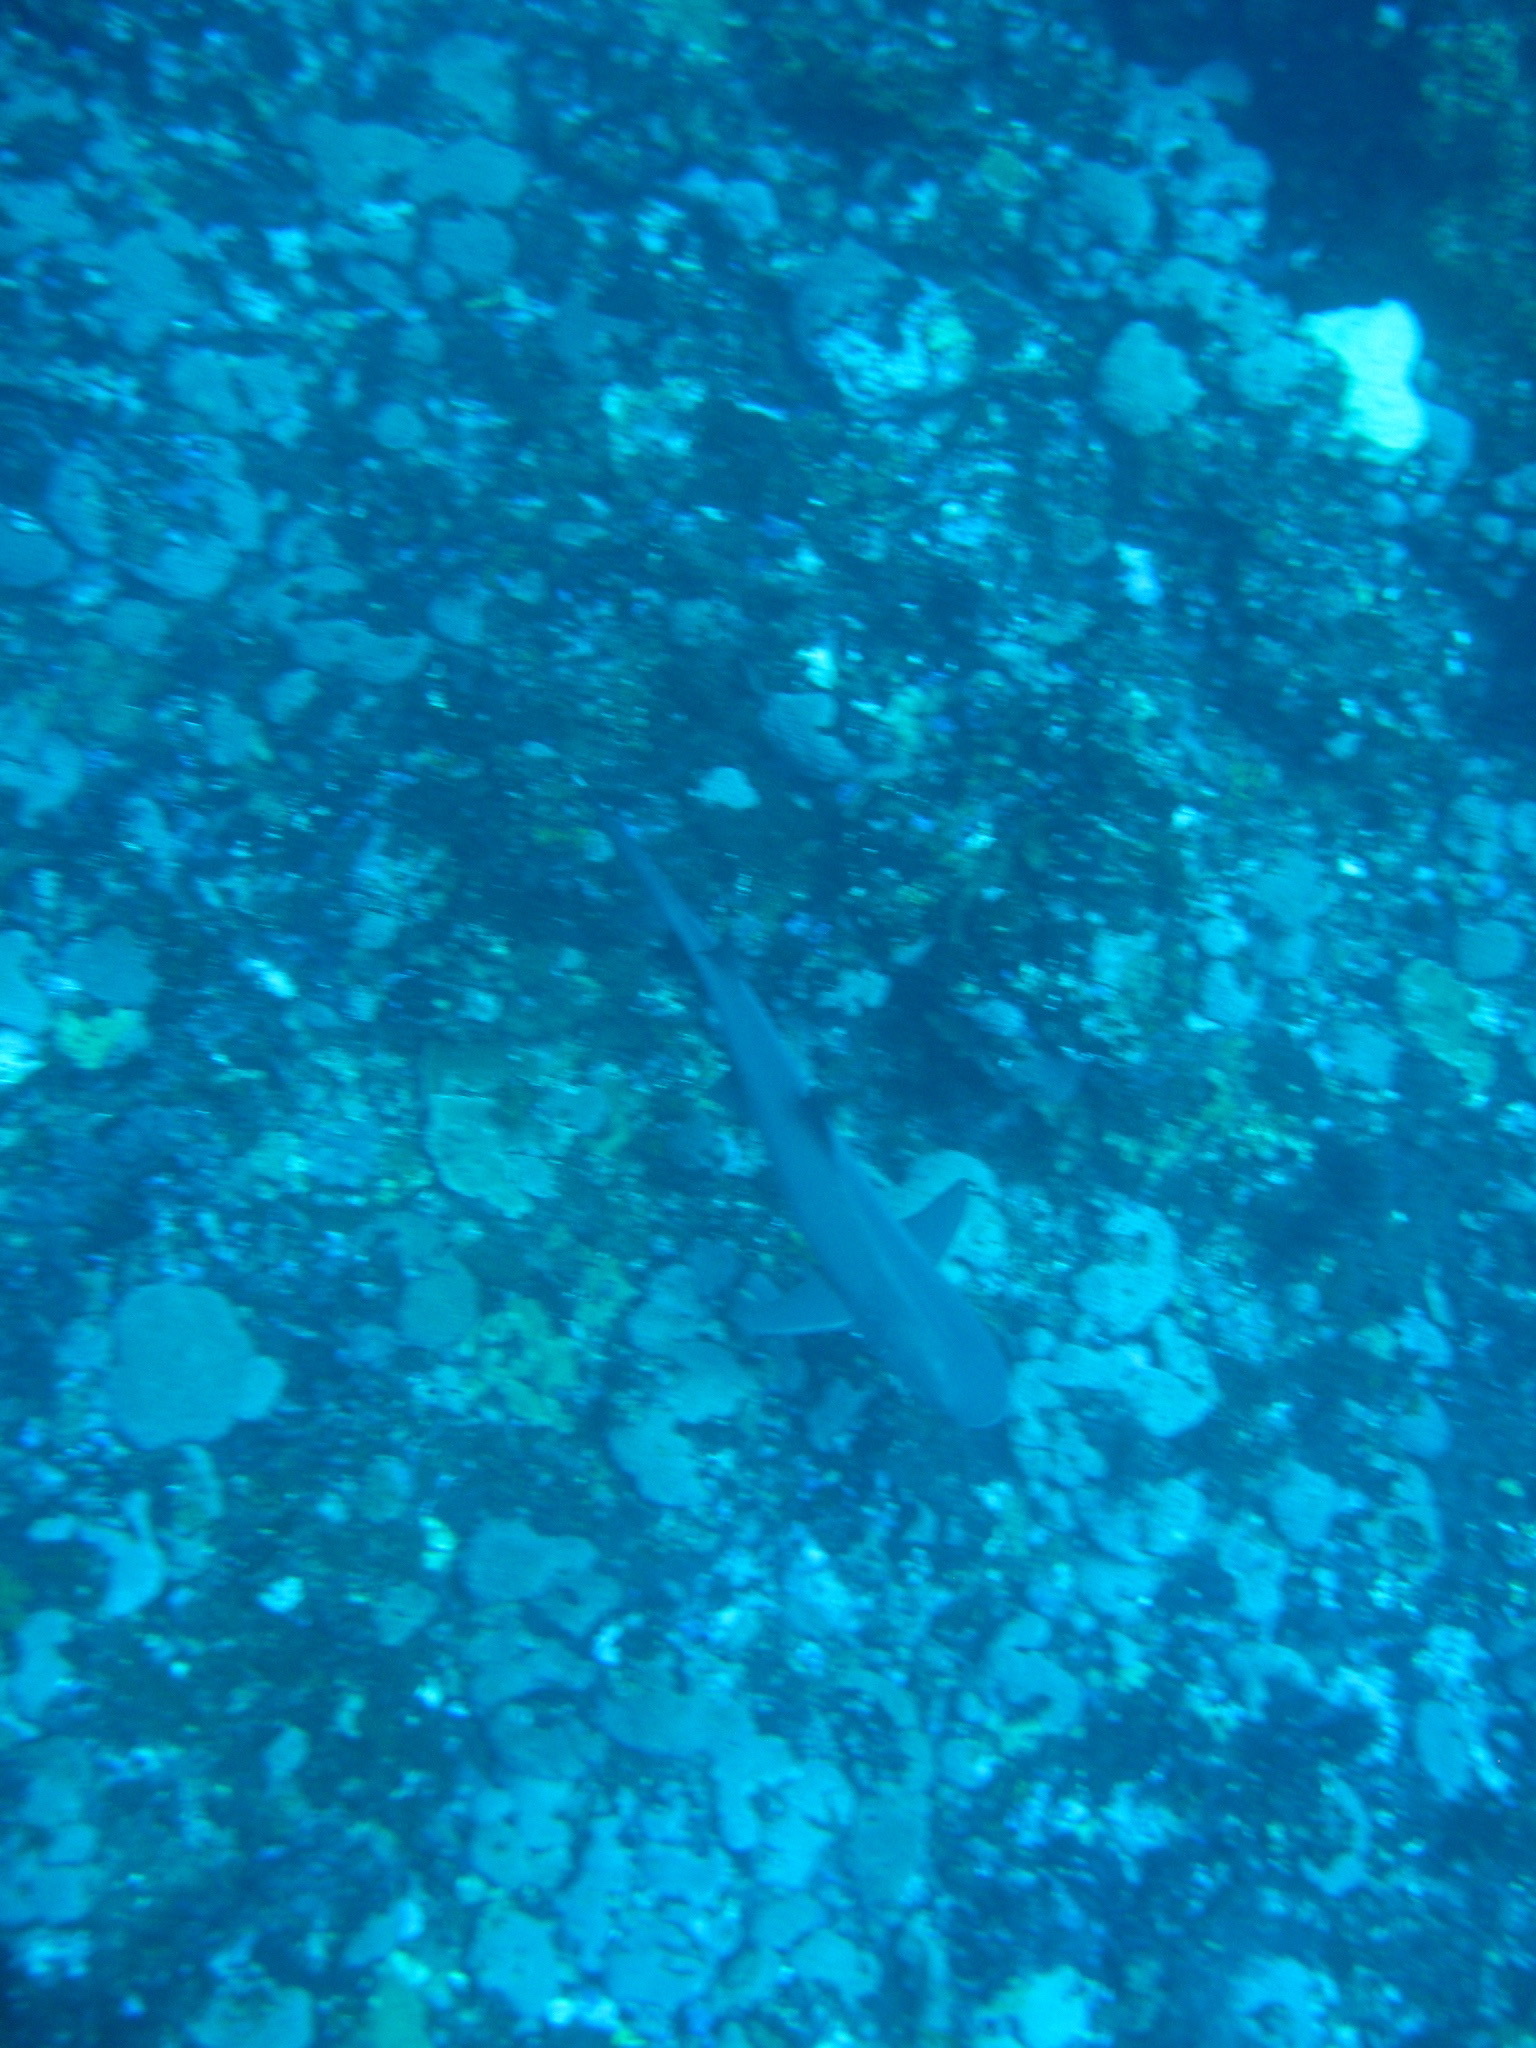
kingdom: Animalia
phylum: Chordata
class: Elasmobranchii
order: Carcharhiniformes
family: Carcharhinidae
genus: Triaenodon
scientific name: Triaenodon obesus
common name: Whitetip reef shark
